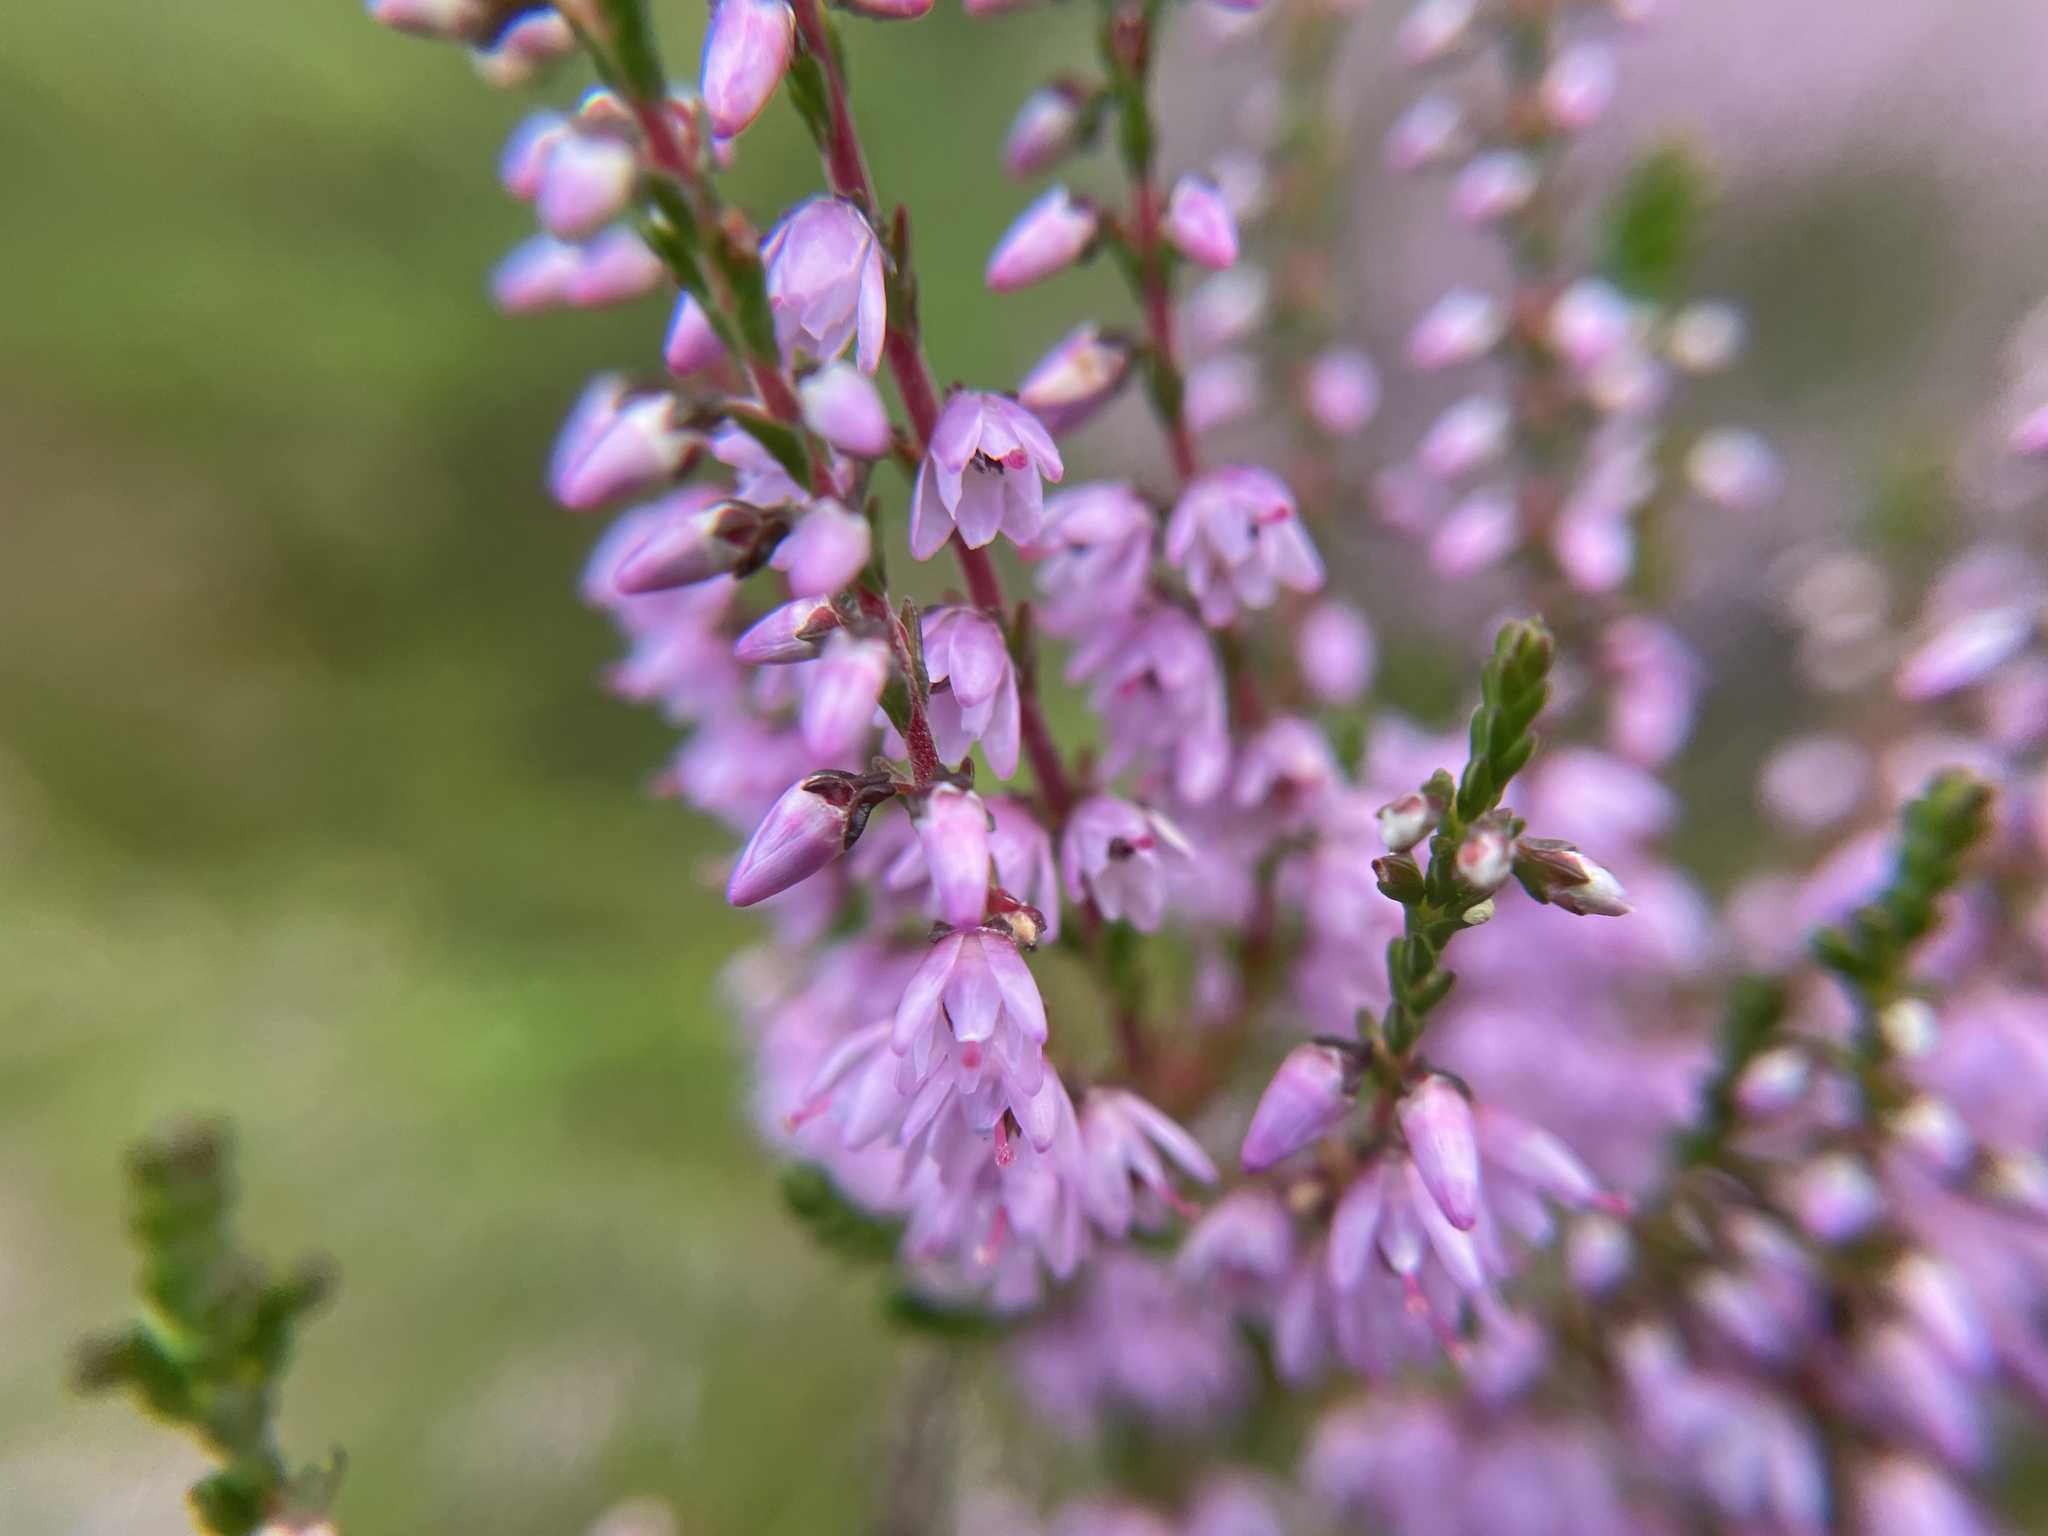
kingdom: Plantae
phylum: Tracheophyta
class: Magnoliopsida
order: Ericales
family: Ericaceae
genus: Calluna
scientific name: Calluna vulgaris
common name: Heather
